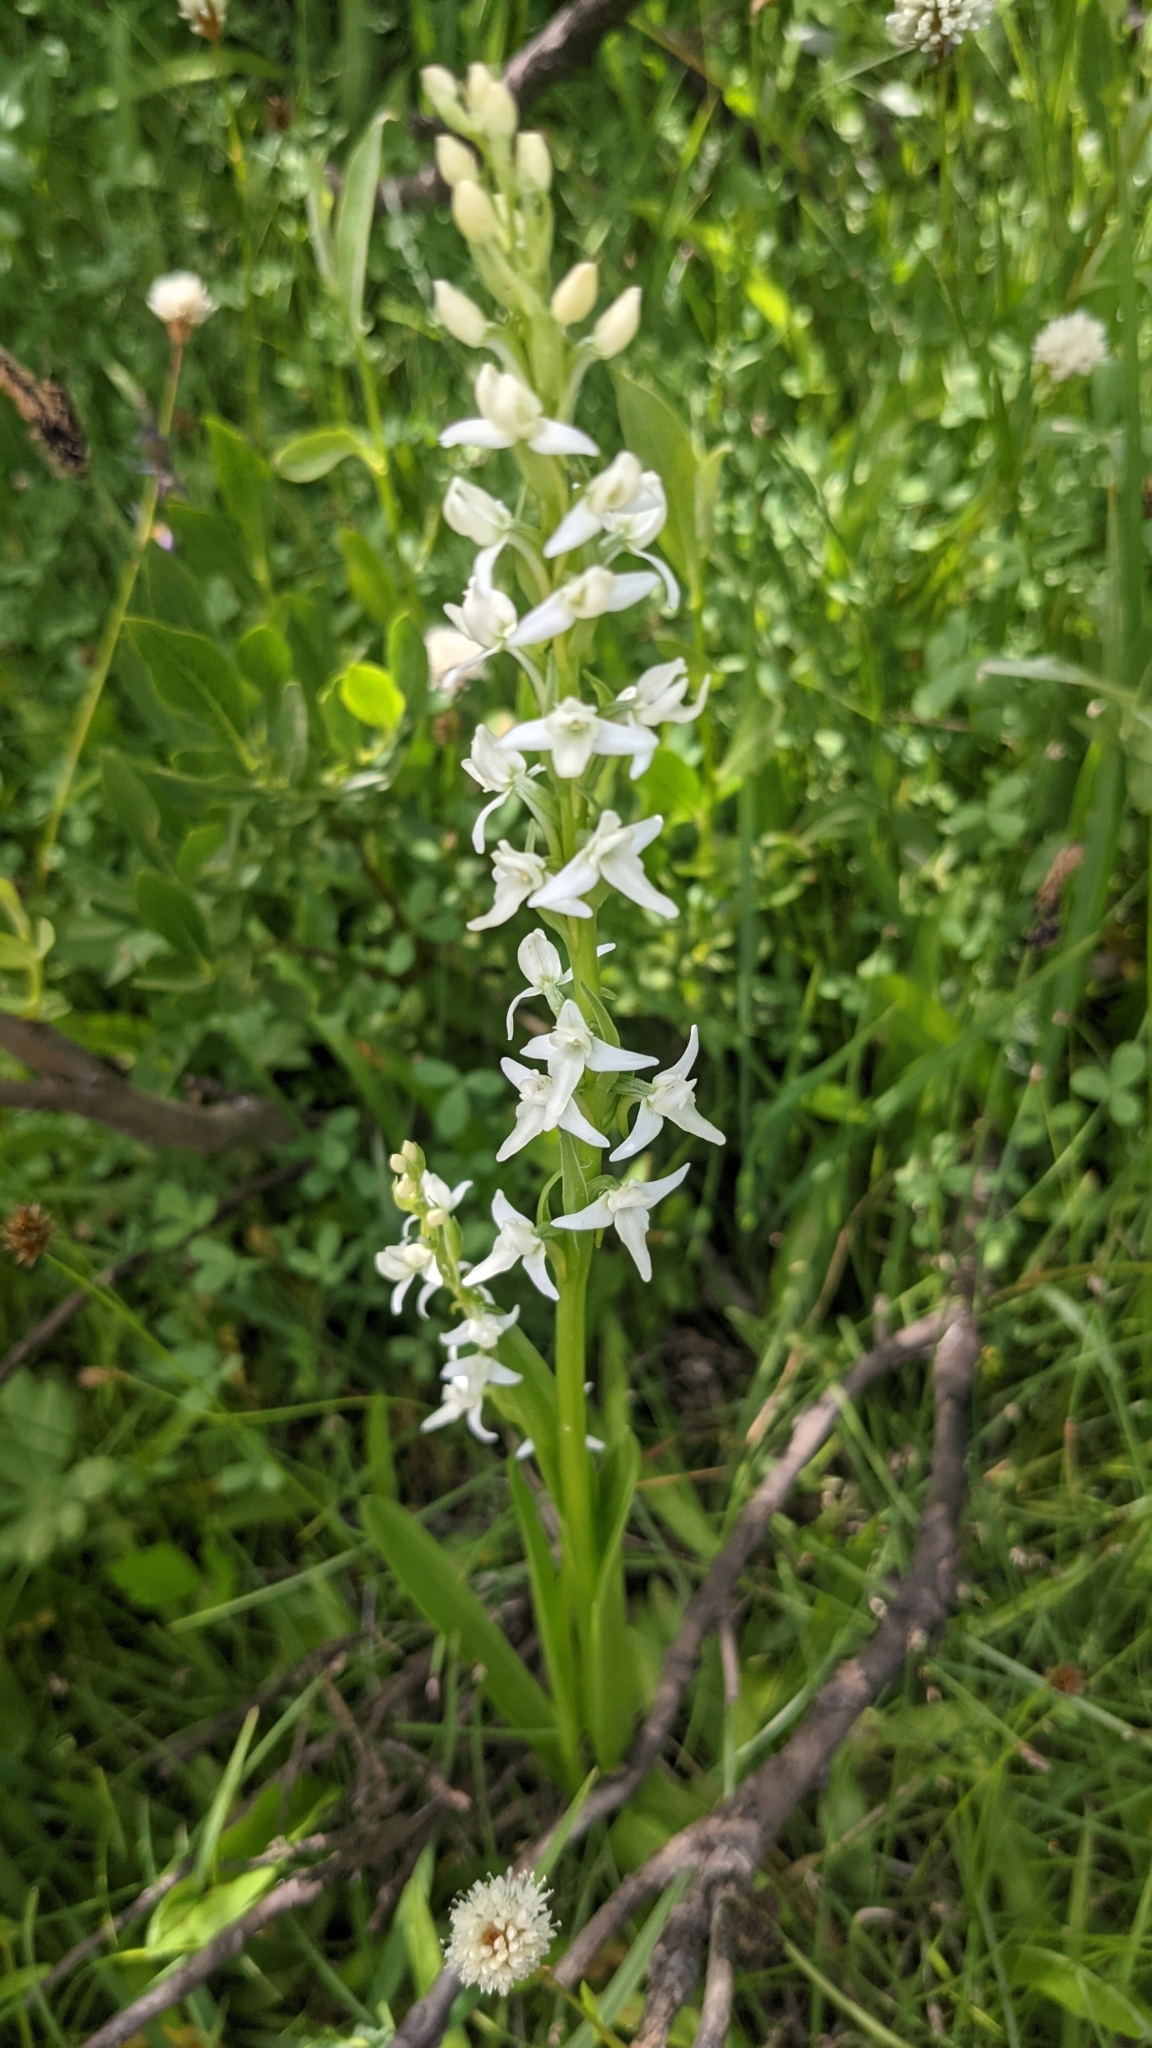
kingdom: Plantae
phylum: Tracheophyta
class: Liliopsida
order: Asparagales
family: Orchidaceae
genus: Platanthera
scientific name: Platanthera dilatata
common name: Bog candles
